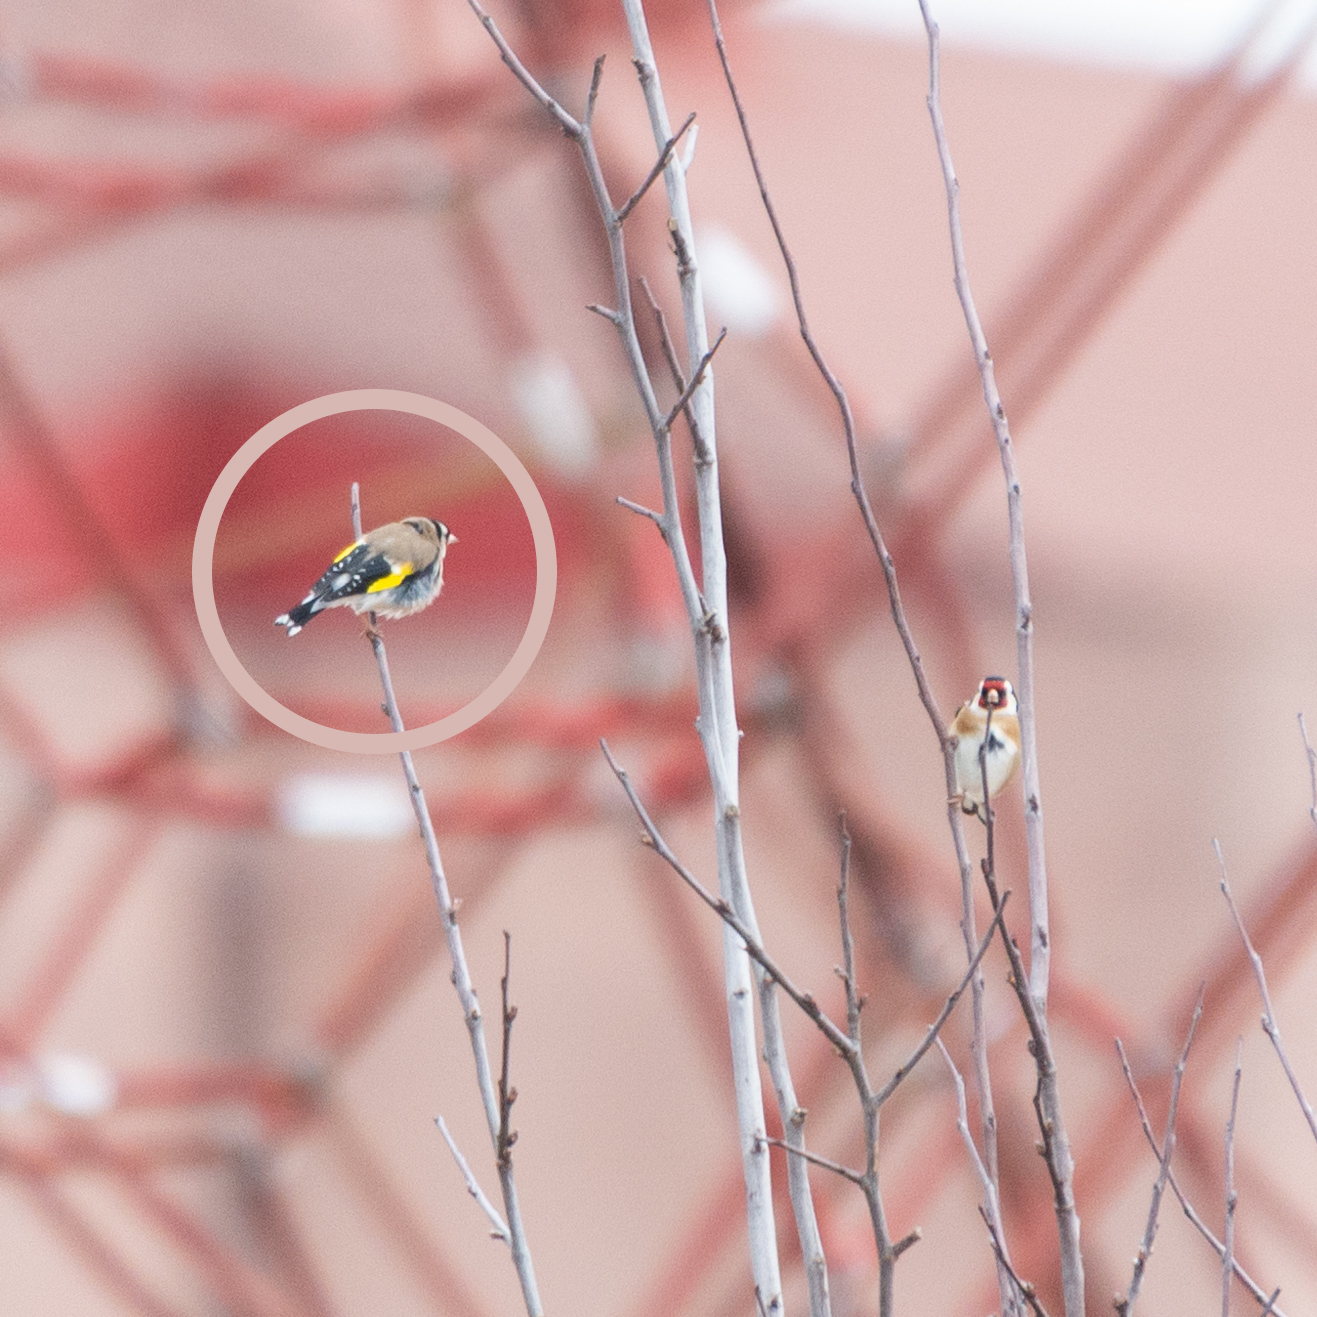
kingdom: Animalia
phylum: Chordata
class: Aves
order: Passeriformes
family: Fringillidae
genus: Carduelis
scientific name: Carduelis carduelis
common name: European goldfinch
